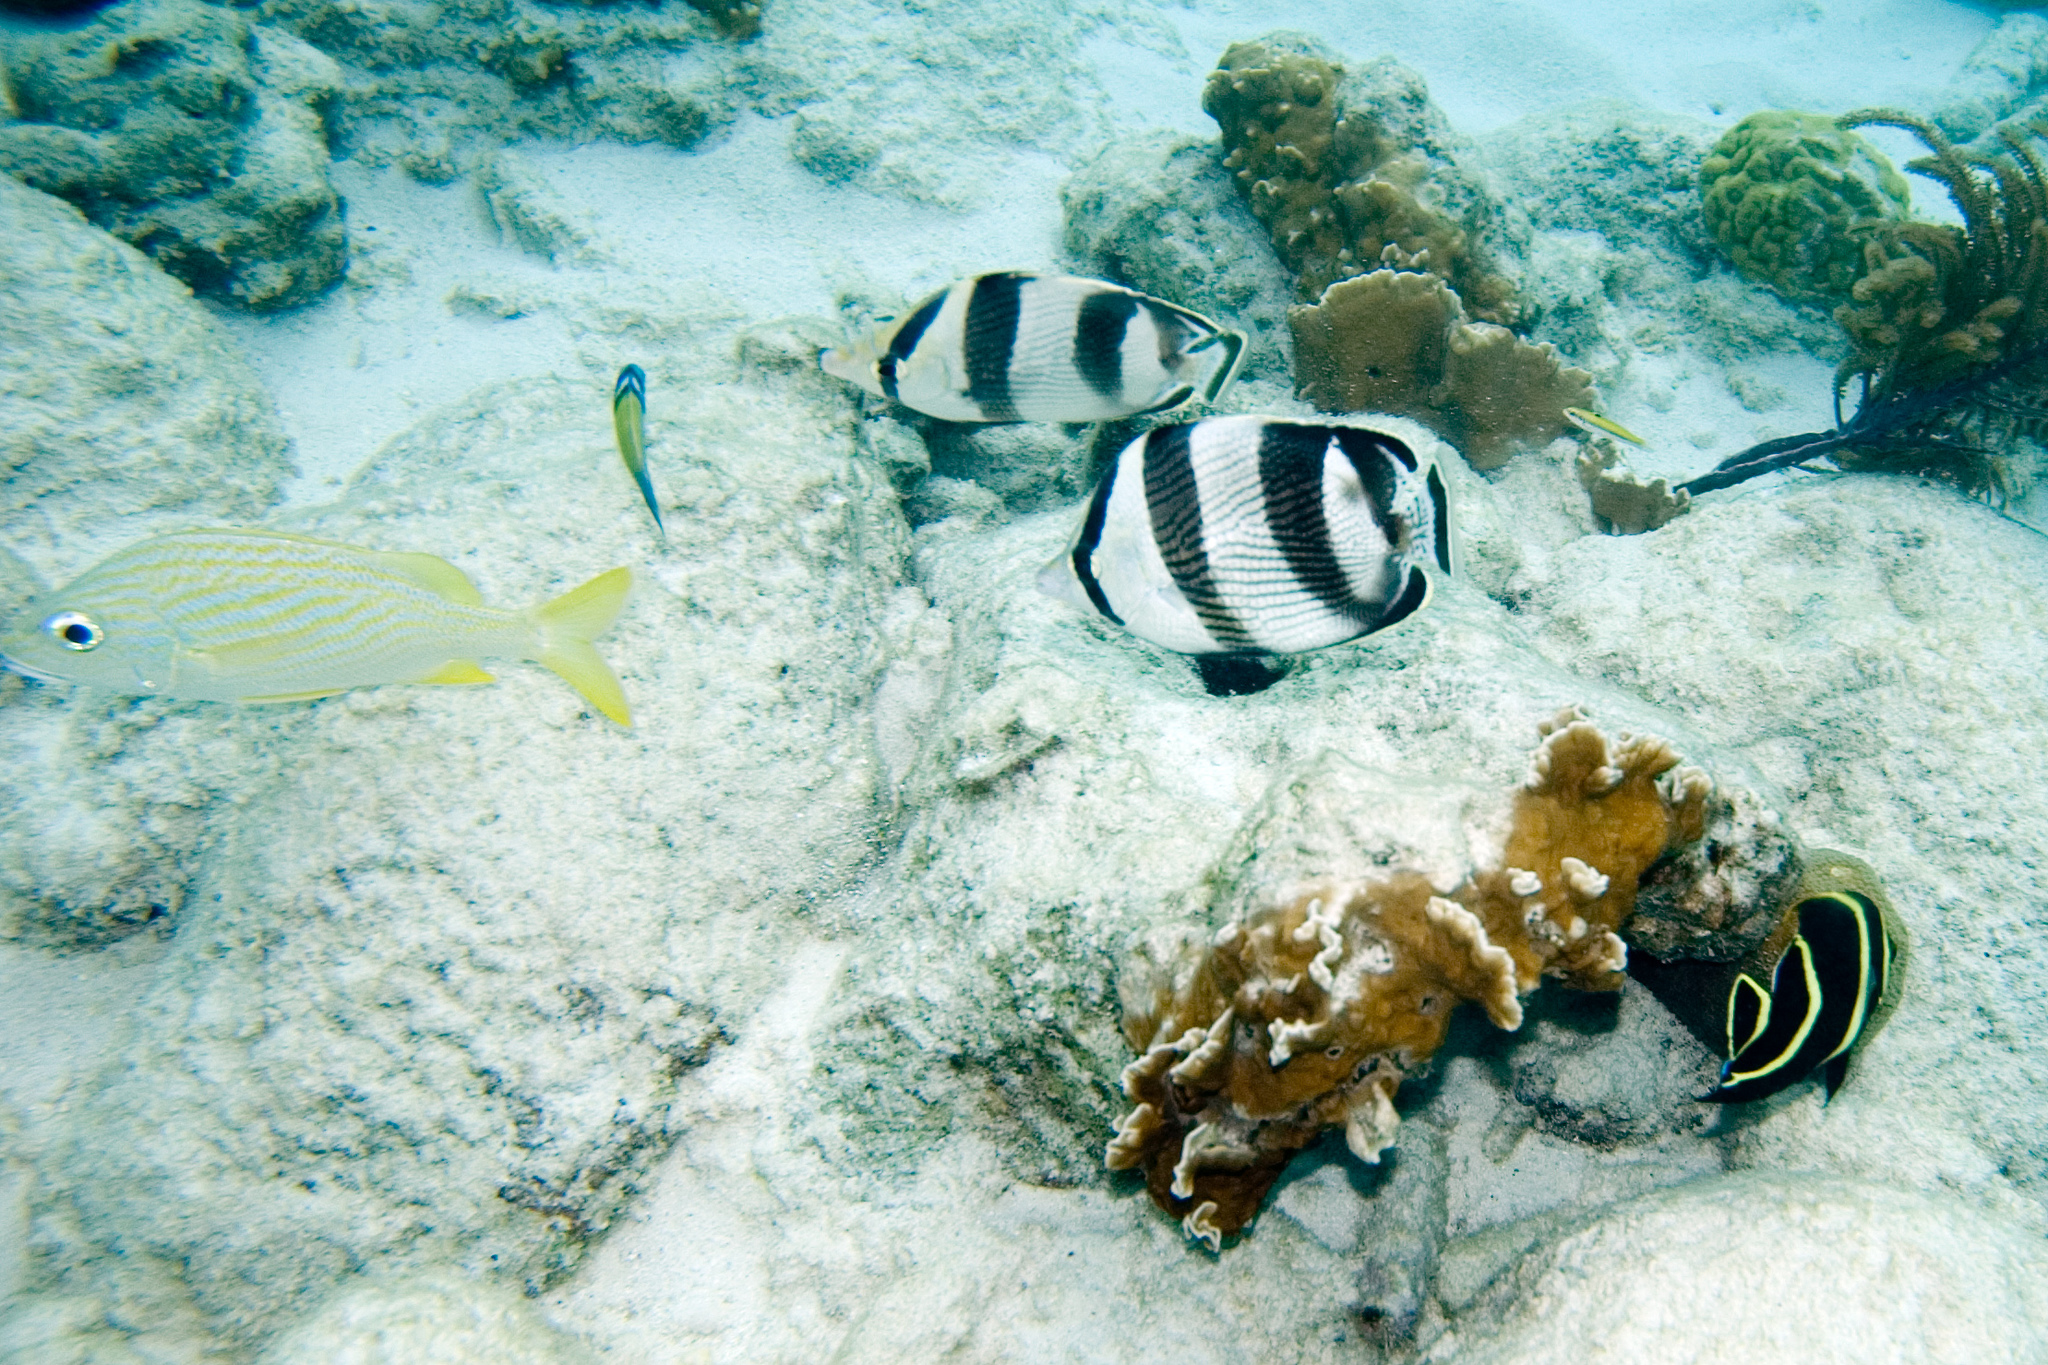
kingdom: Animalia
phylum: Chordata
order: Perciformes
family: Chaetodontidae
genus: Chaetodon
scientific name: Chaetodon striatus
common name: Banded butterflyfish
